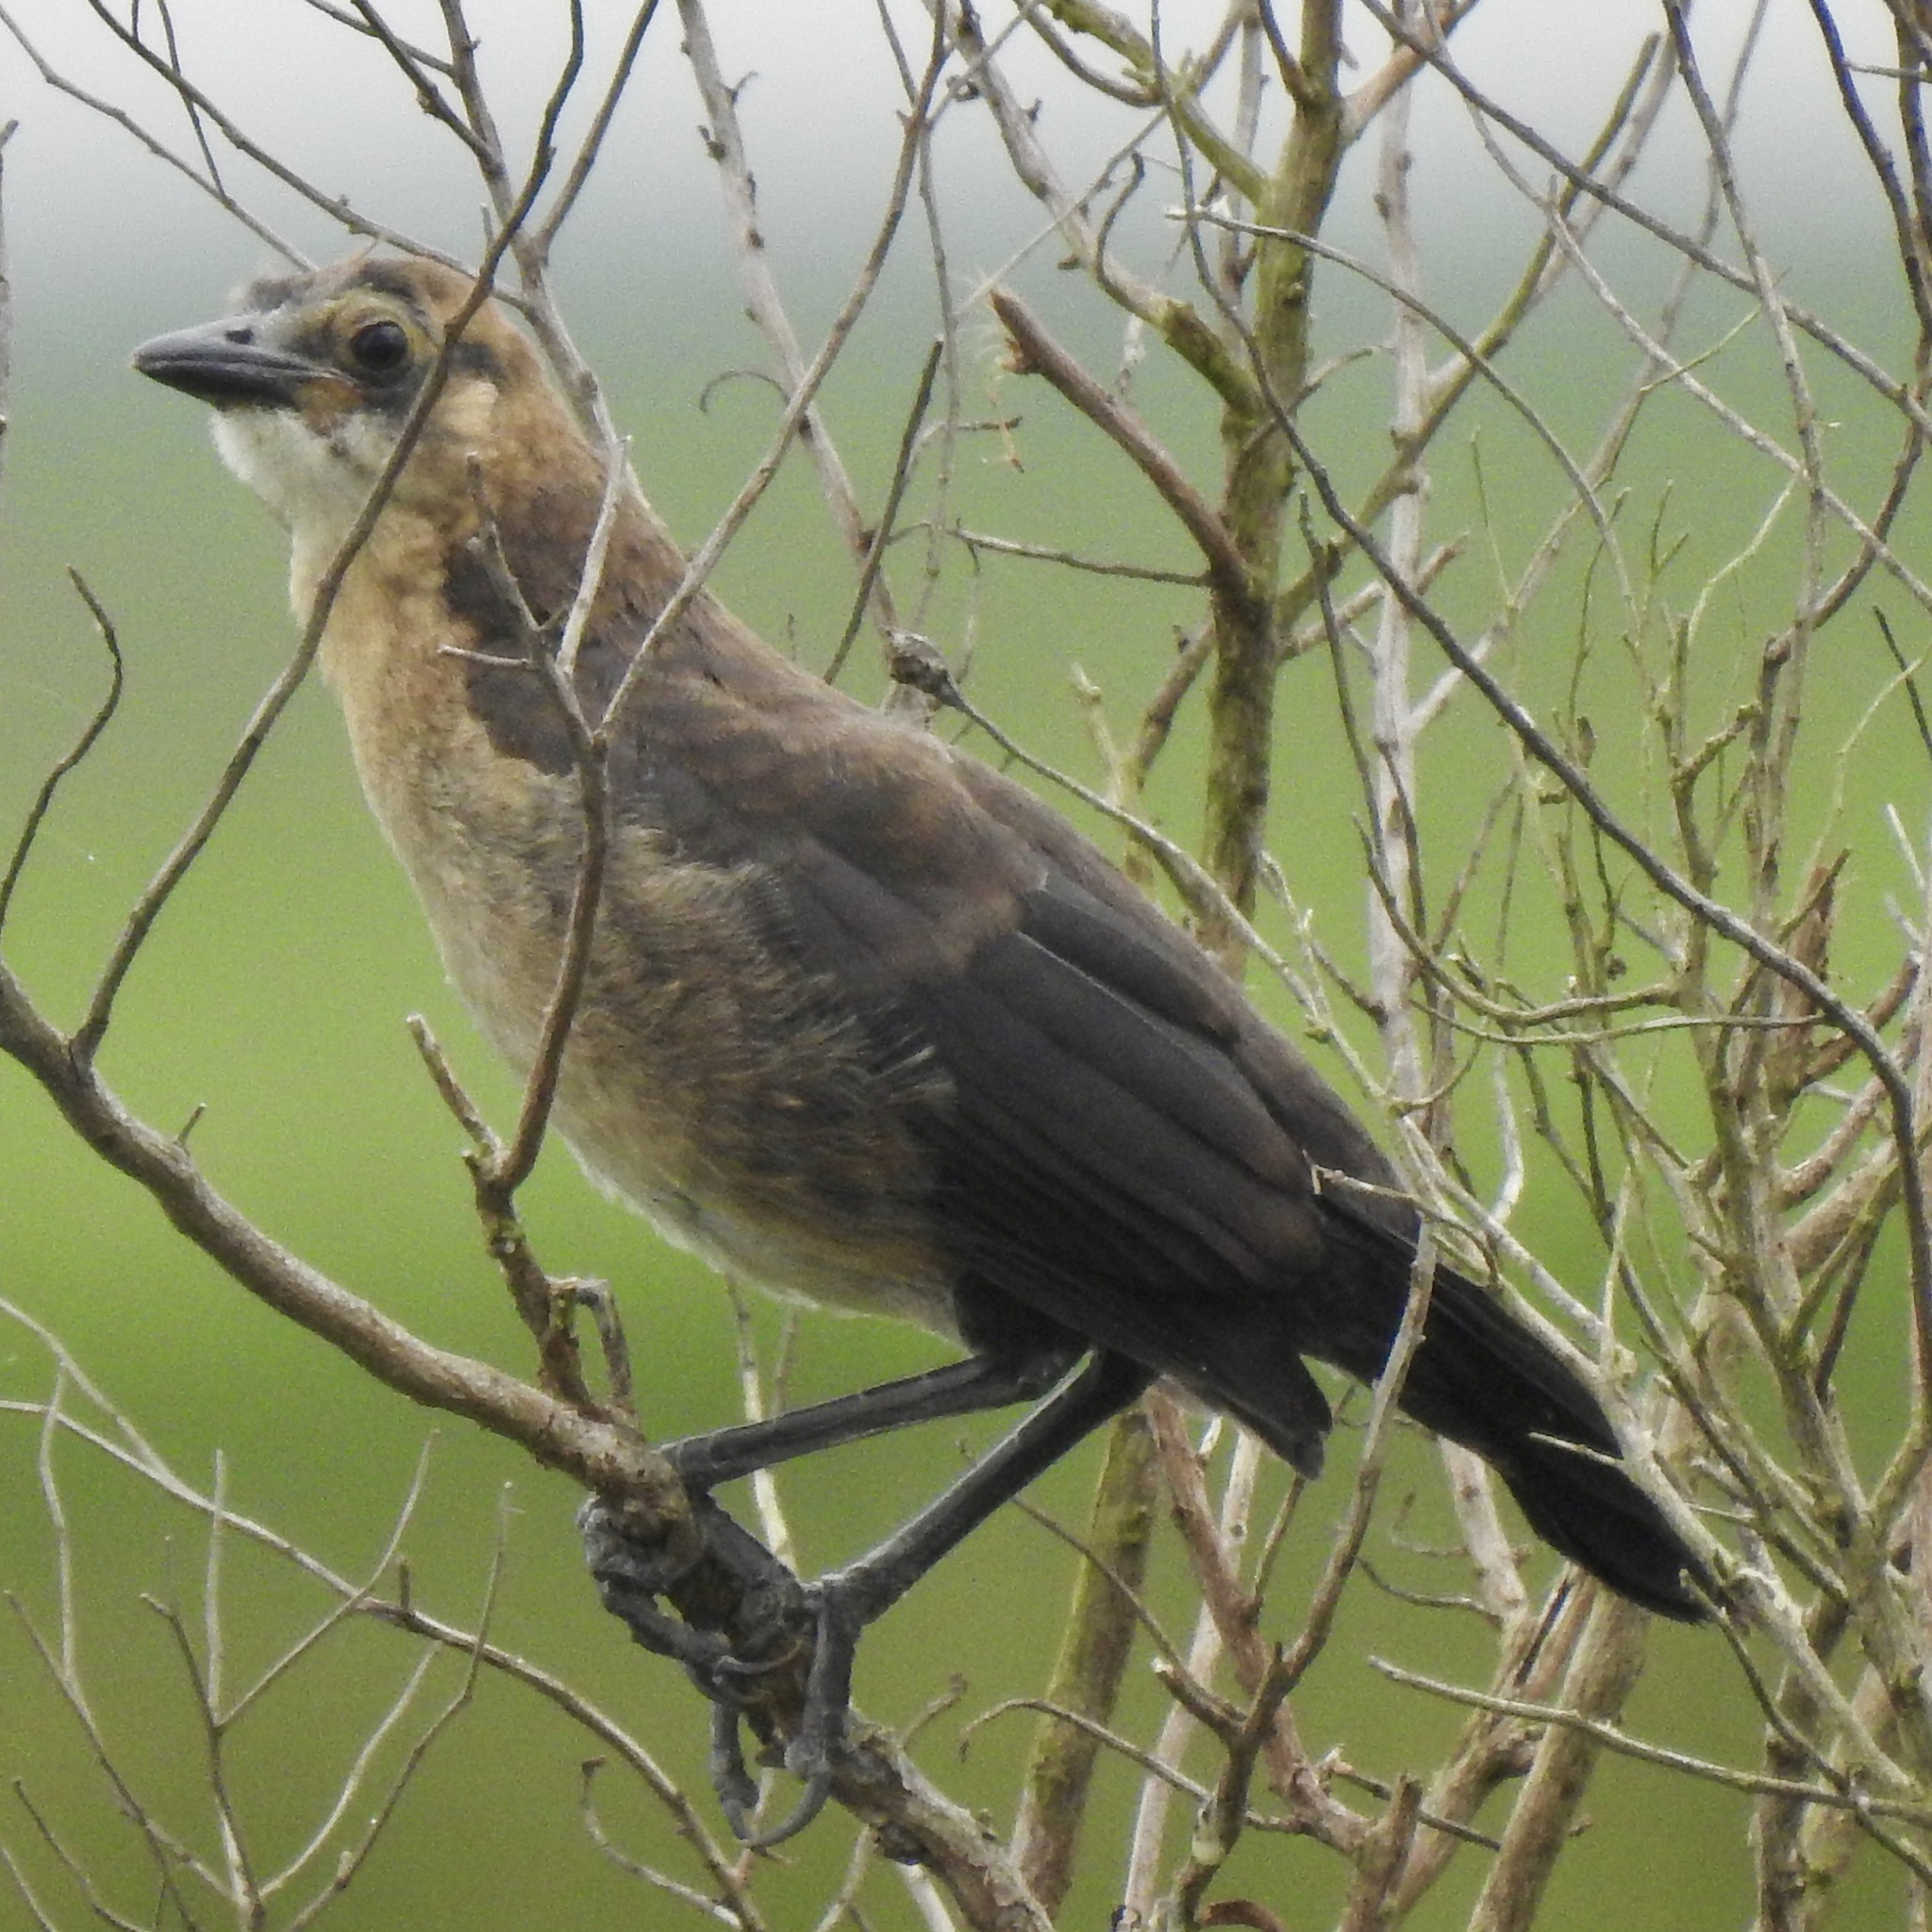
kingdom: Animalia
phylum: Chordata
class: Aves
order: Passeriformes
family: Icteridae
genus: Quiscalus
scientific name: Quiscalus major
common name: Boat-tailed grackle
